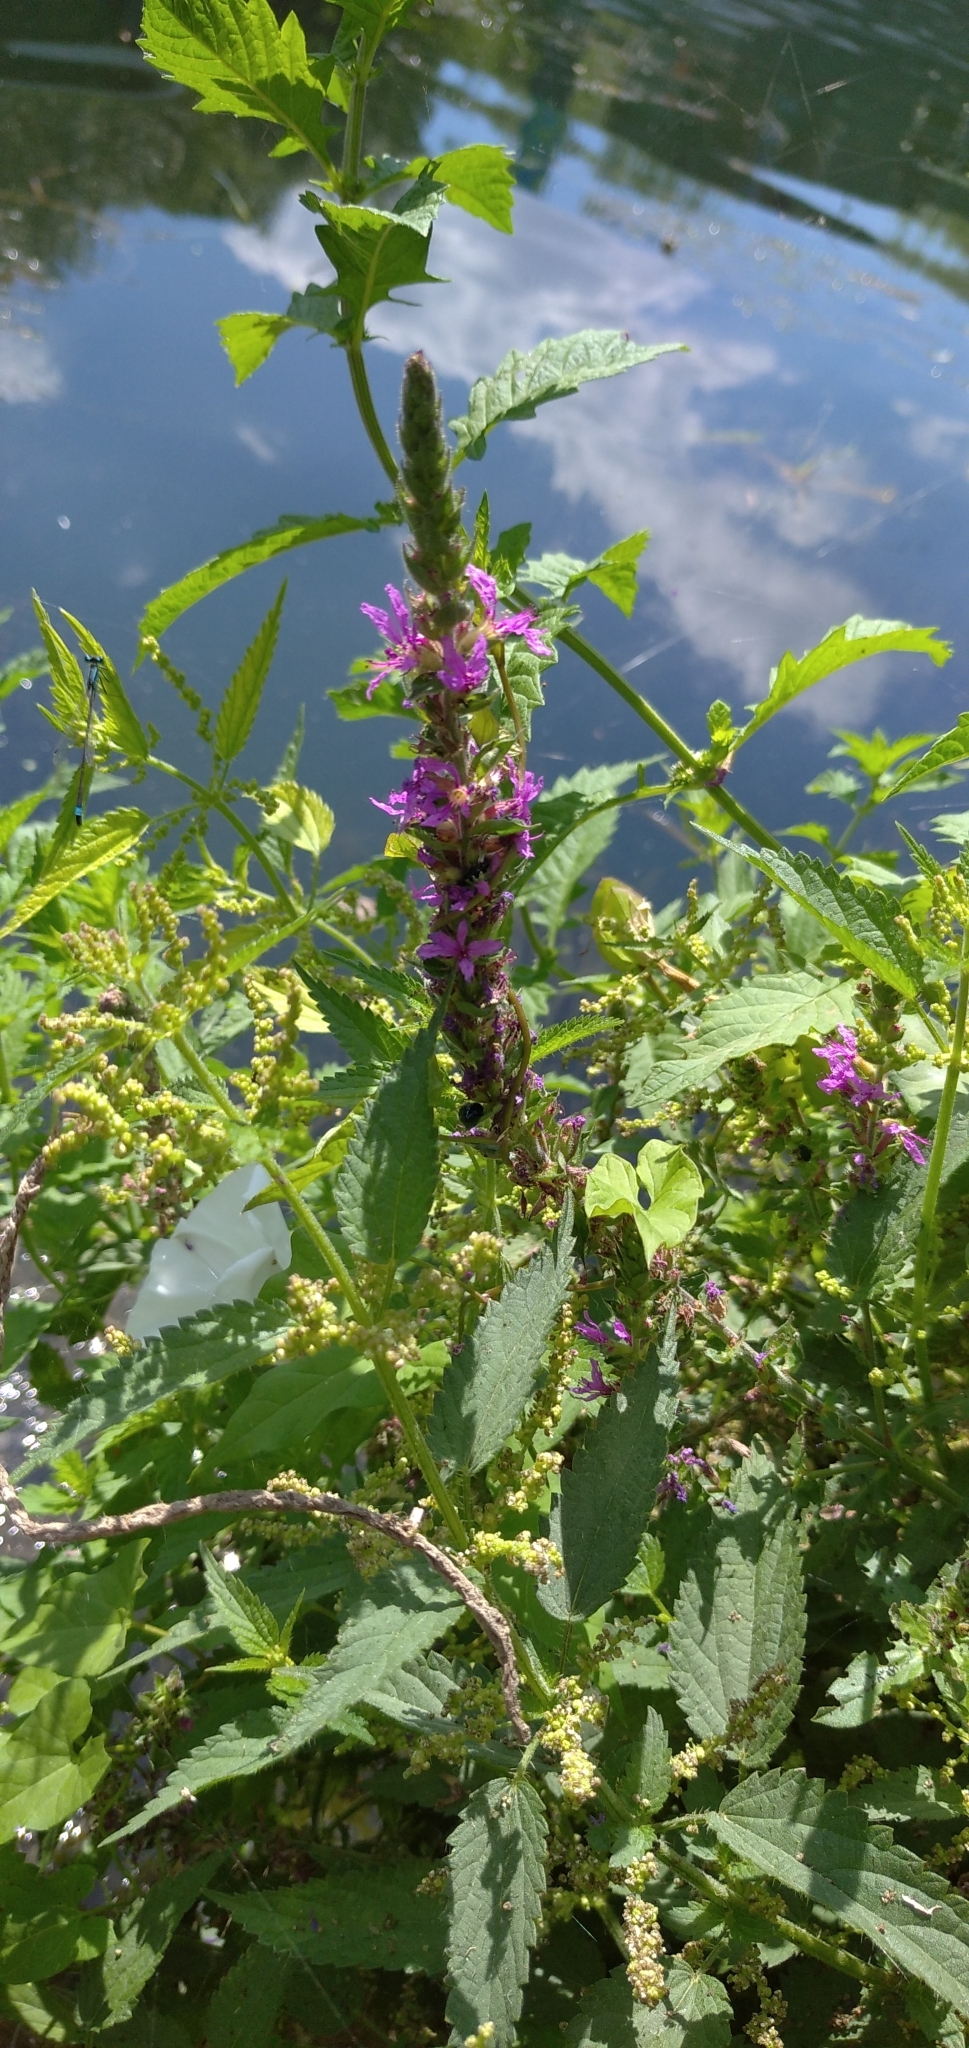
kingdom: Plantae
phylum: Tracheophyta
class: Magnoliopsida
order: Myrtales
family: Lythraceae
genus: Lythrum
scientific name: Lythrum salicaria
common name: Purple loosestrife
